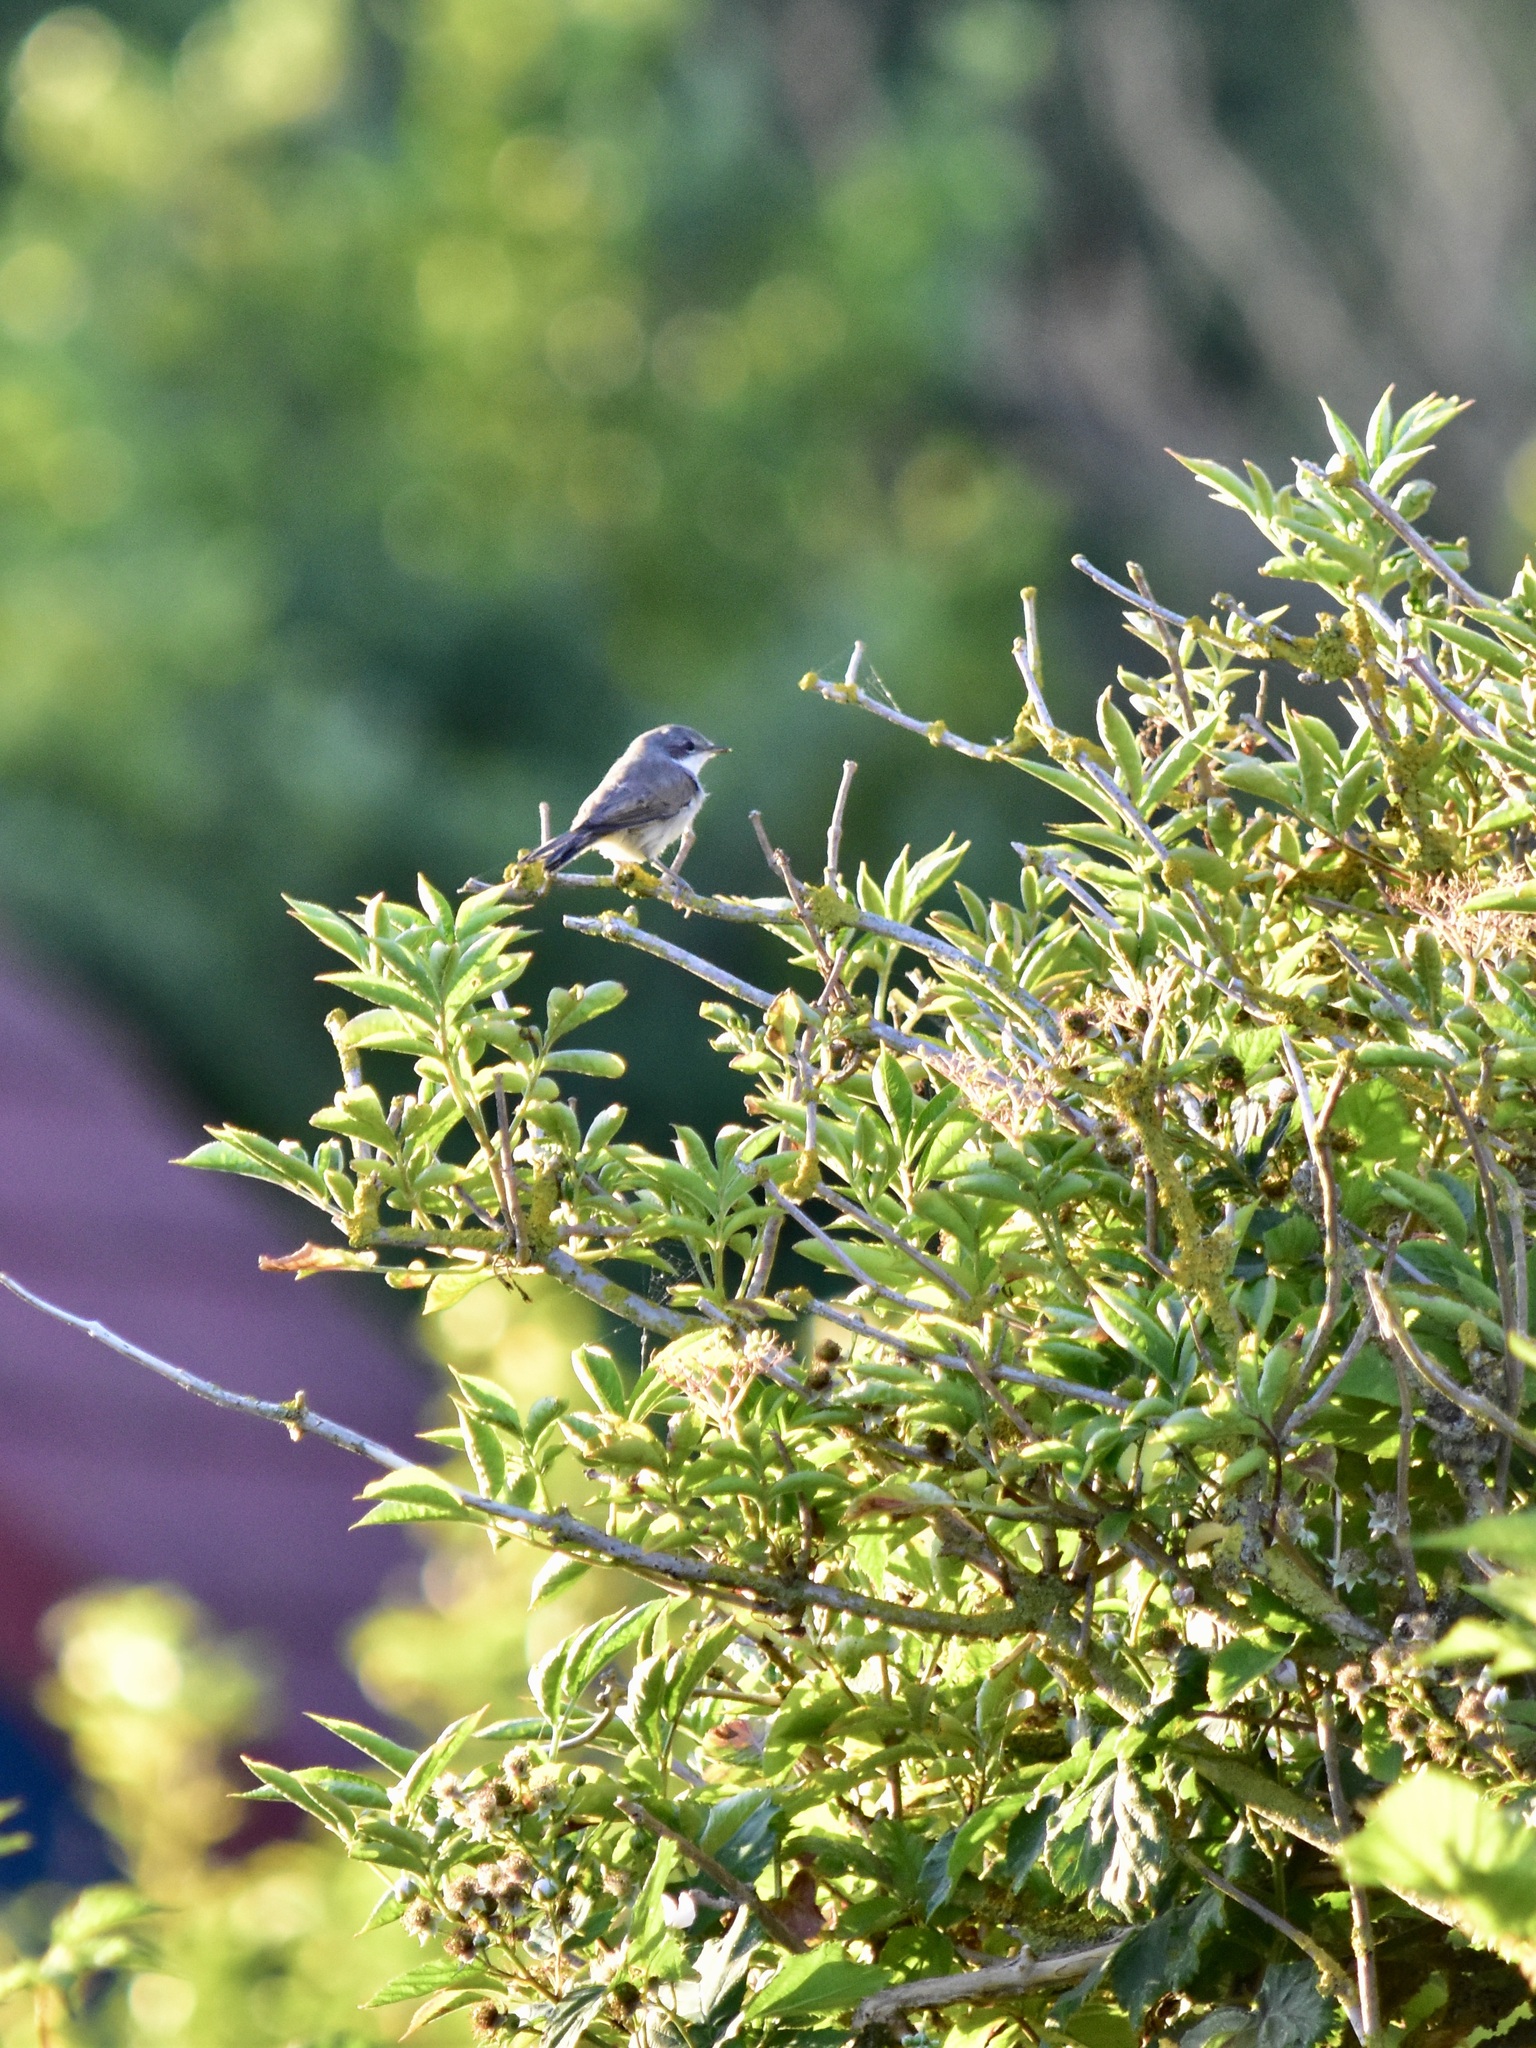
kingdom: Animalia
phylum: Chordata
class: Aves
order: Passeriformes
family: Sylviidae
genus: Sylvia
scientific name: Sylvia curruca
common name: Lesser whitethroat
